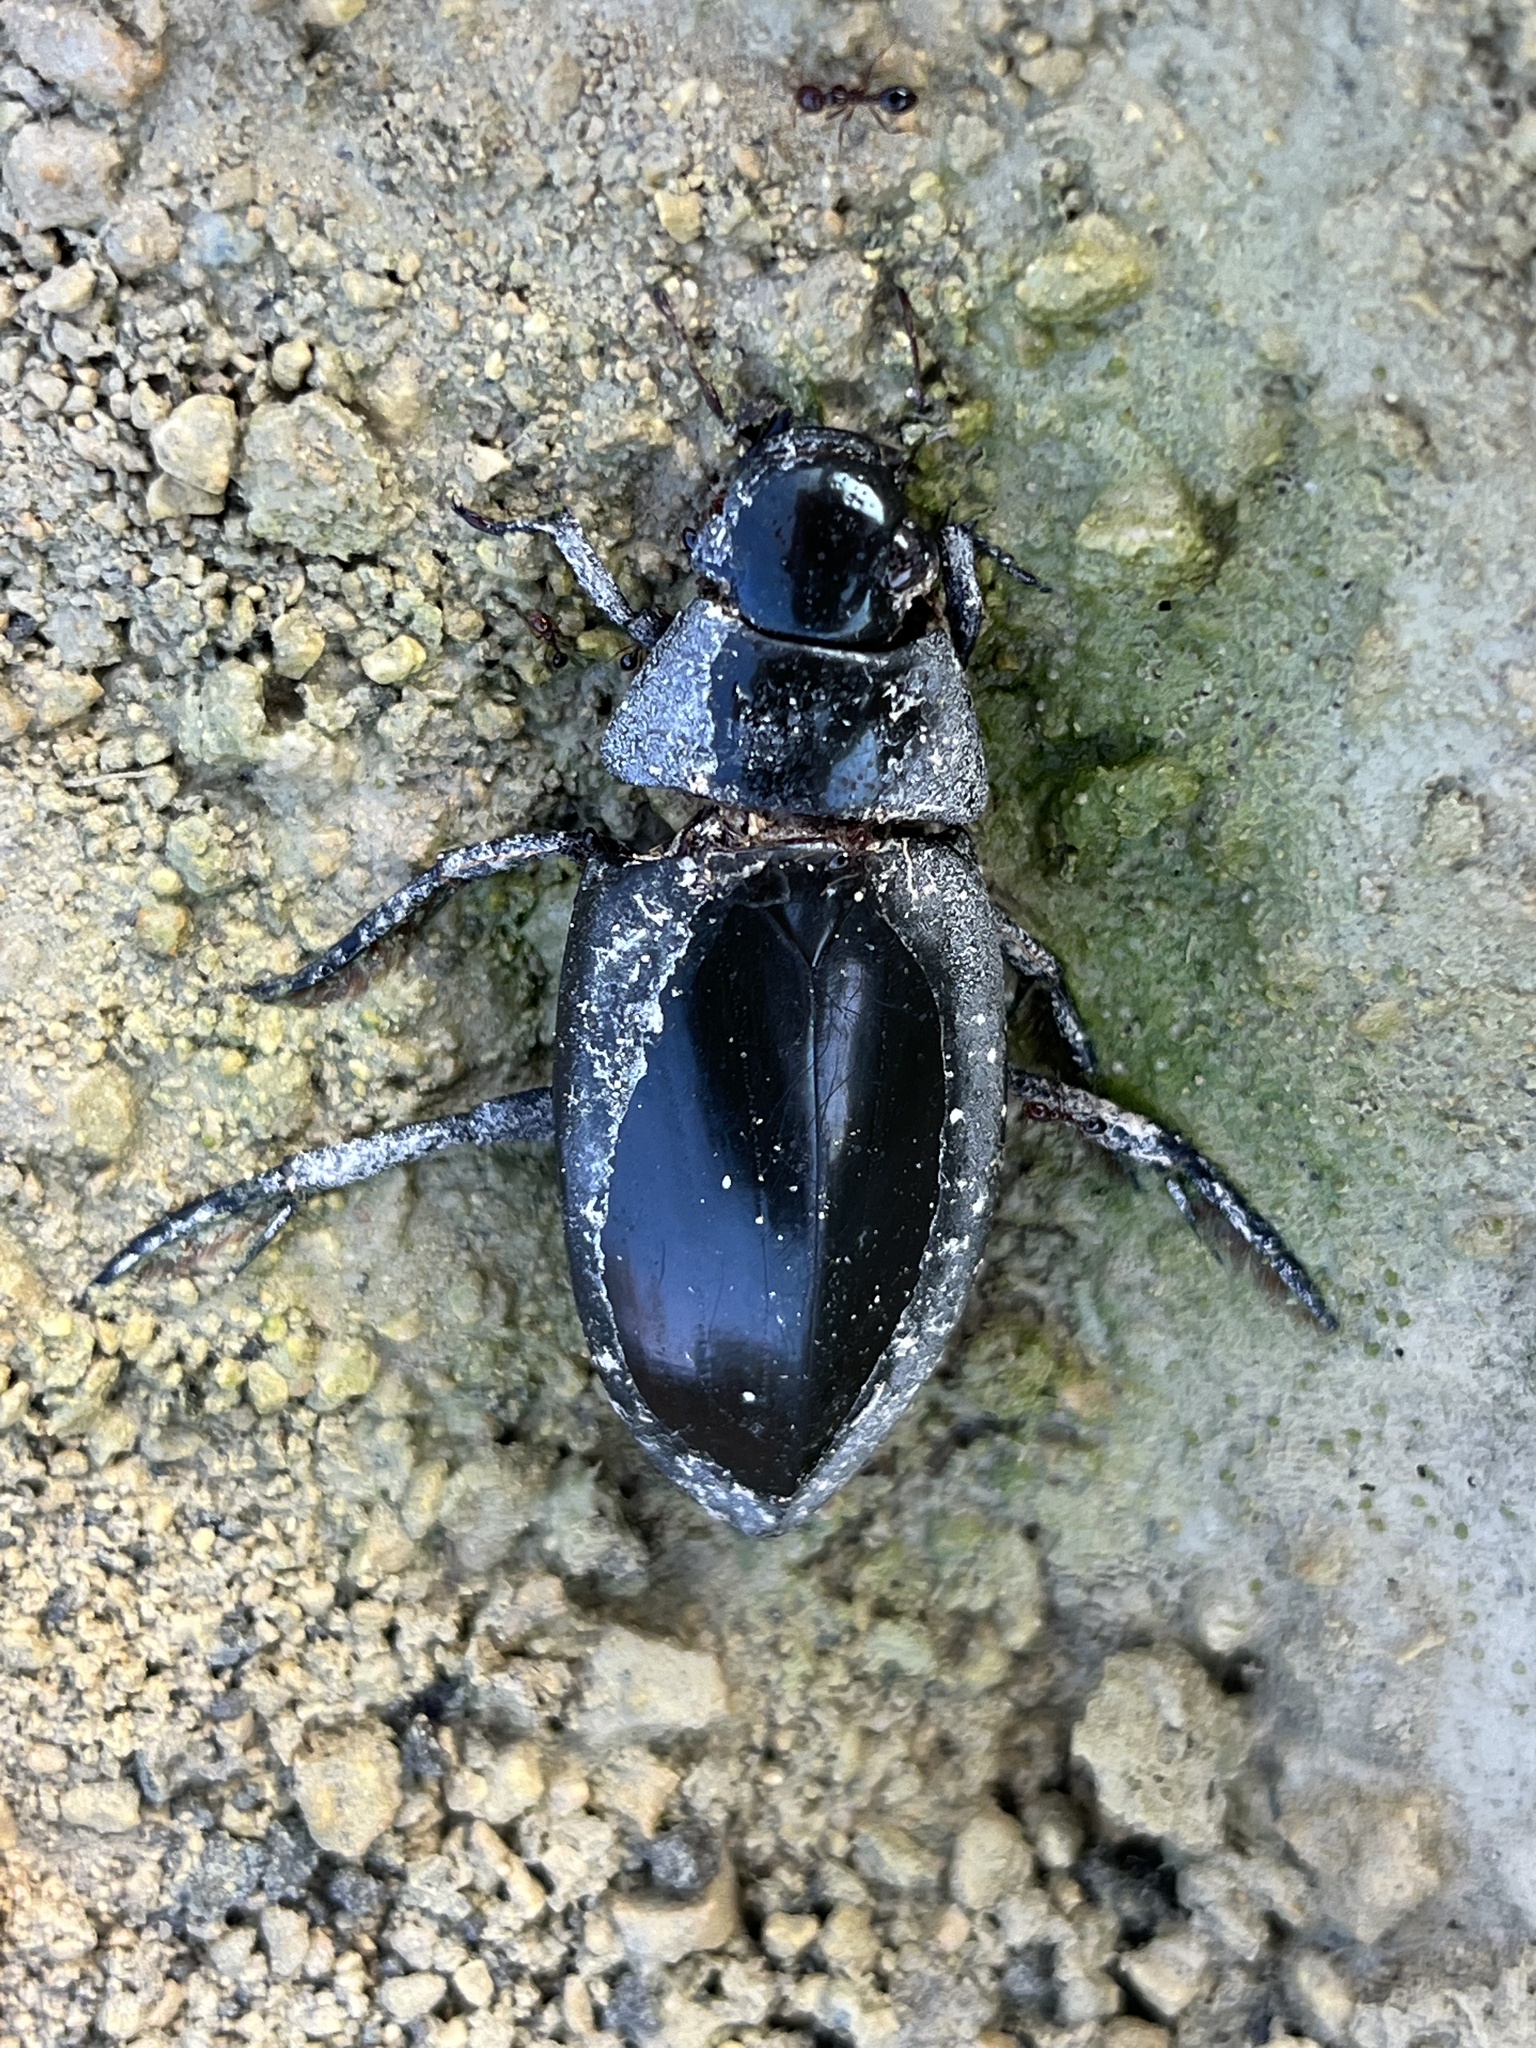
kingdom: Animalia
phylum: Arthropoda
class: Insecta
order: Coleoptera
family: Hydrophilidae
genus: Hydrophilus
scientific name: Hydrophilus triangularis
